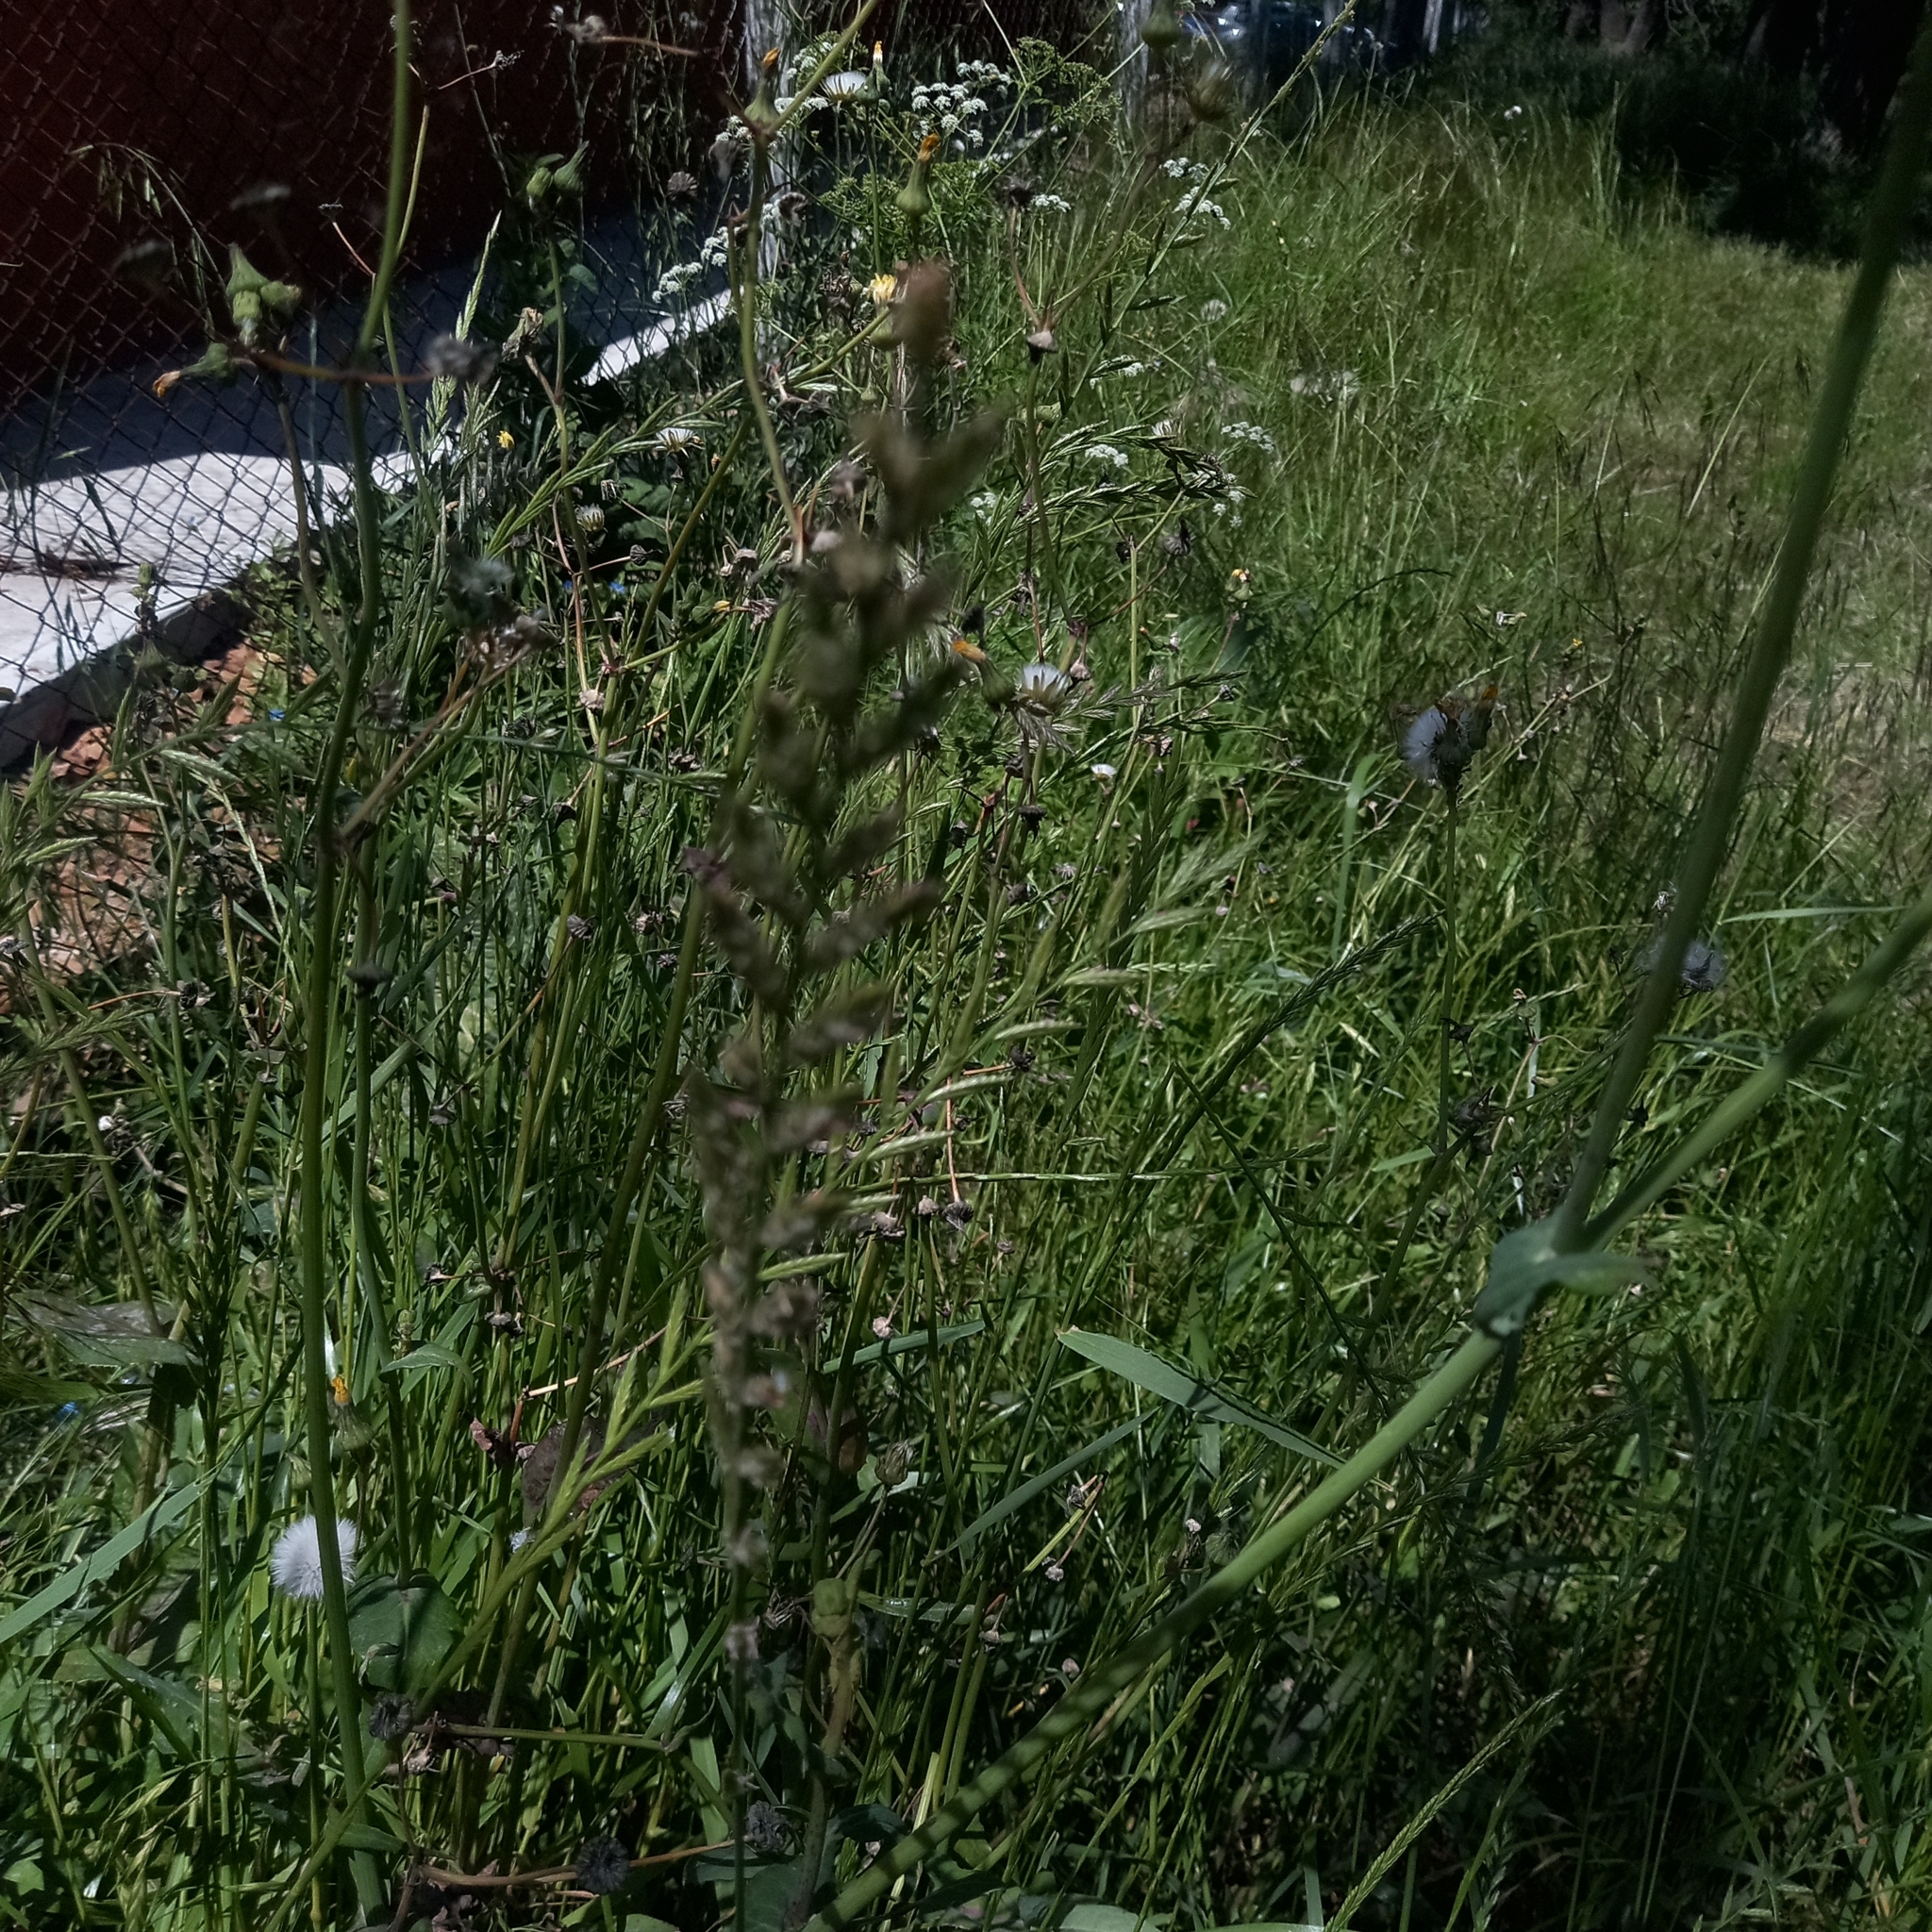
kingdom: Plantae
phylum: Tracheophyta
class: Liliopsida
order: Poales
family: Poaceae
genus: Lolium
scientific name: Lolium multiflorum
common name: Annual ryegrass
